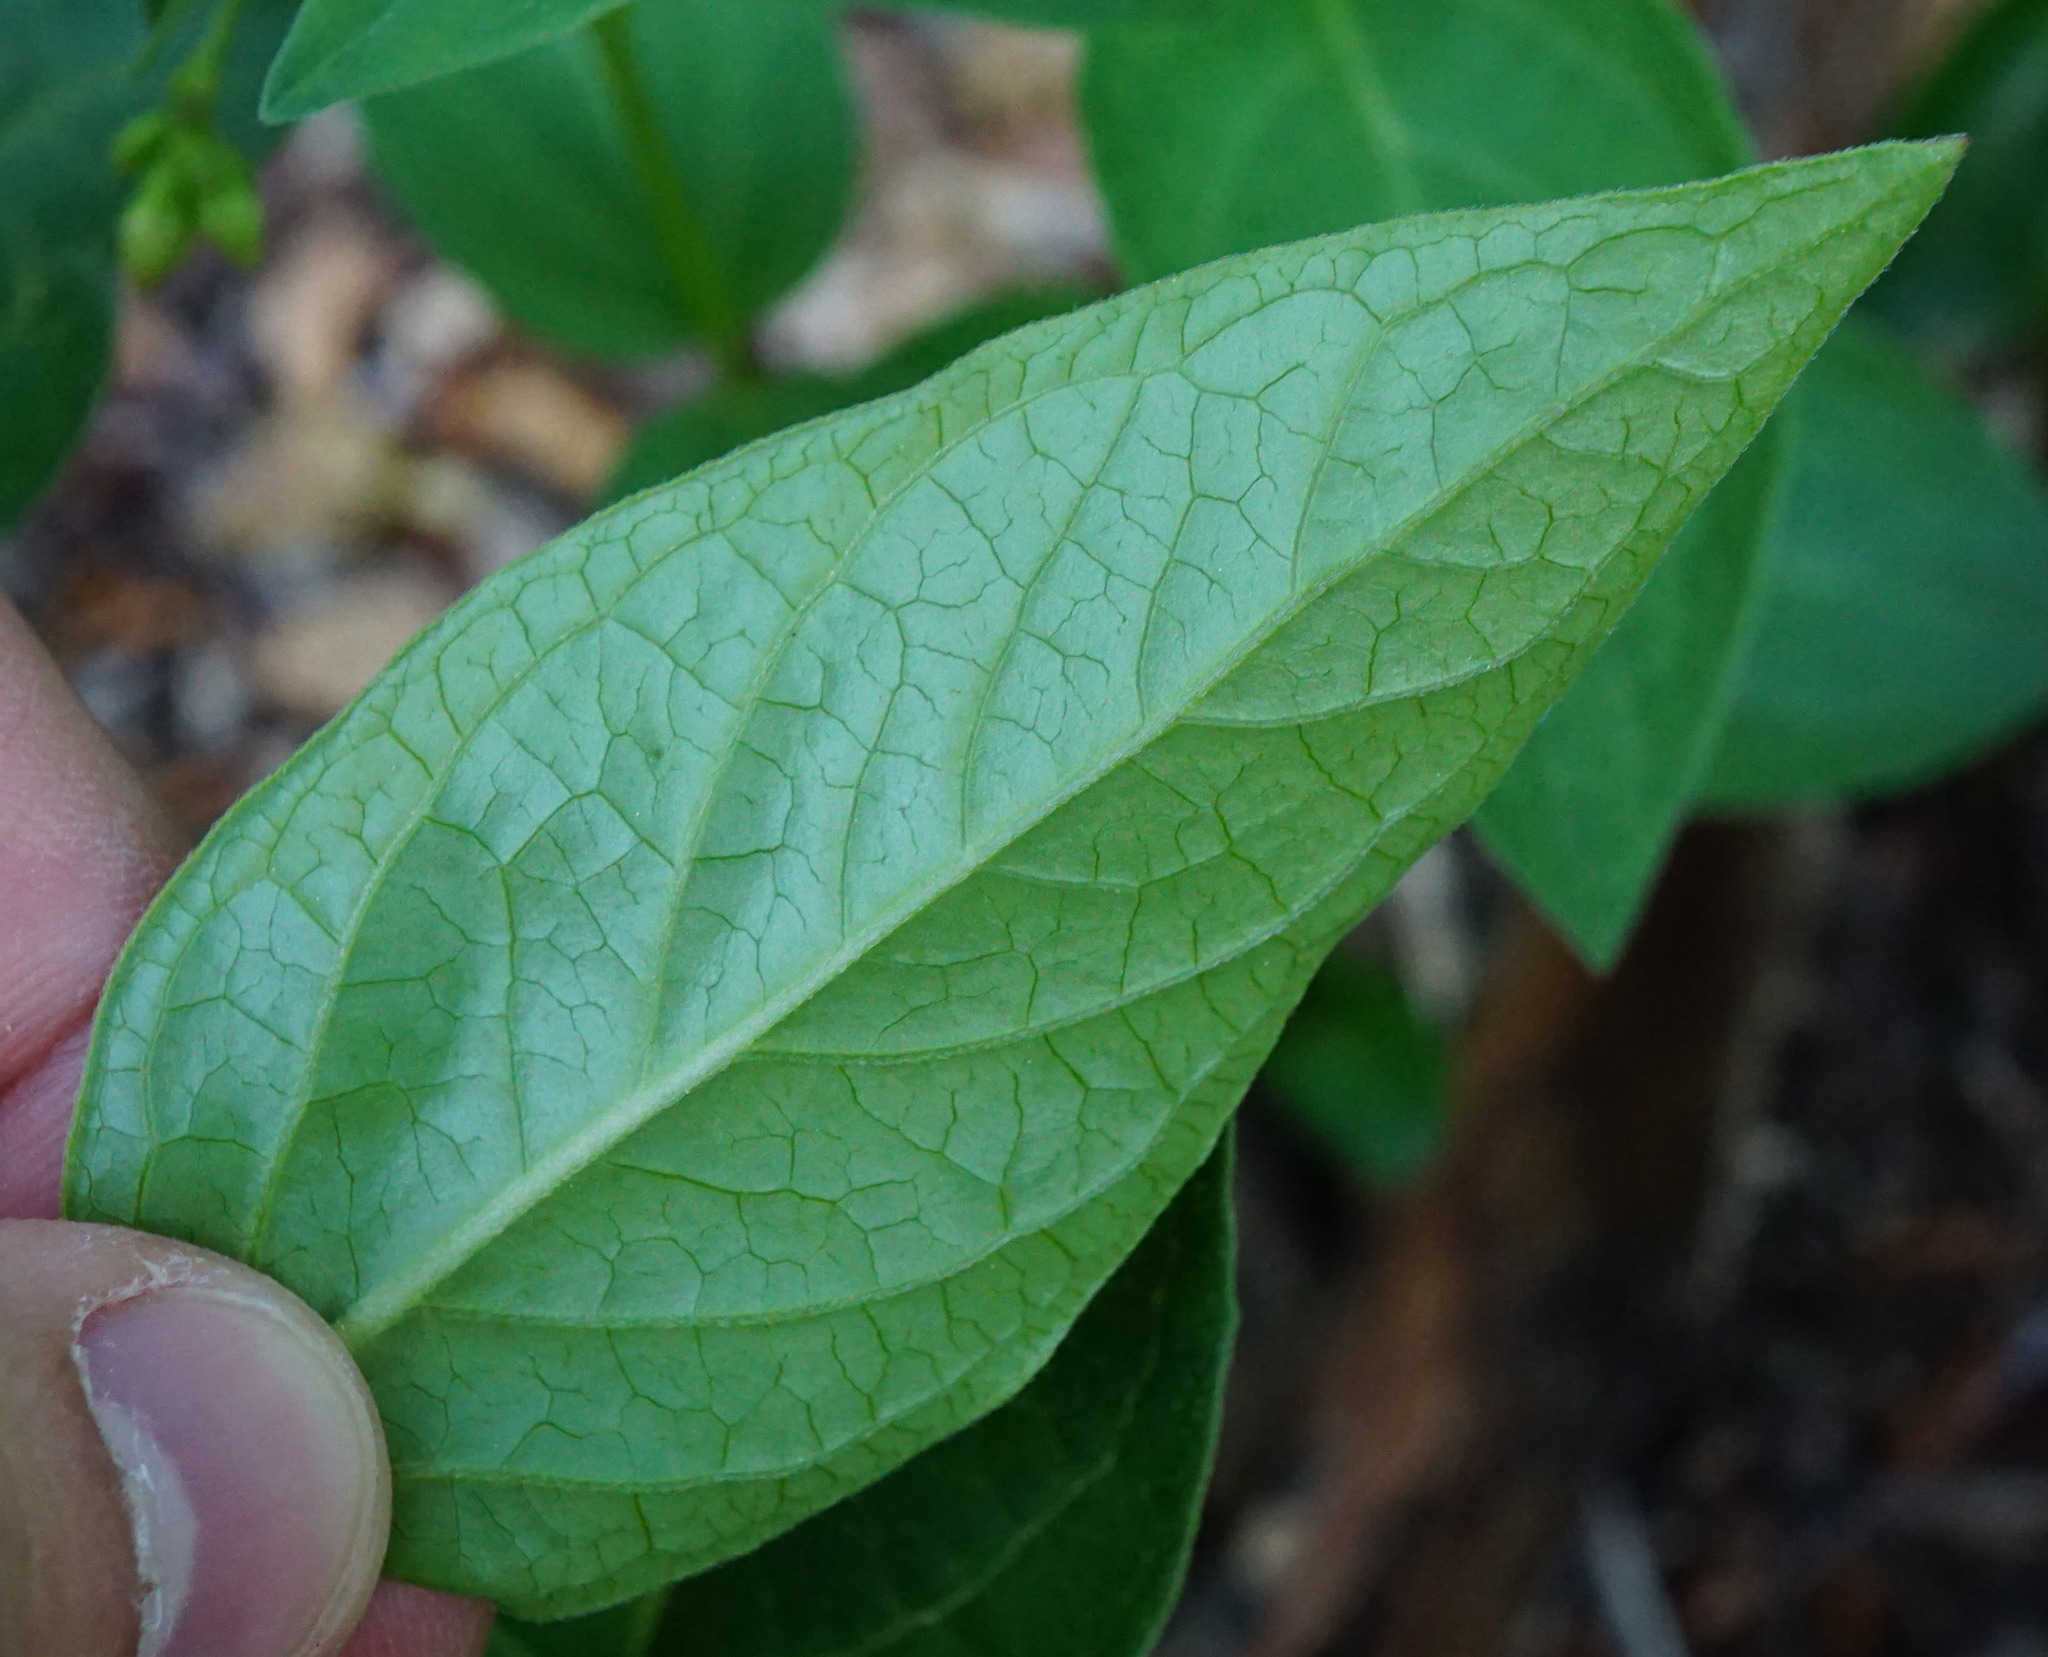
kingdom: Plantae
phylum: Tracheophyta
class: Magnoliopsida
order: Gentianales
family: Apocynaceae
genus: Vincetoxicum
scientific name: Vincetoxicum hirundinaria
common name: White swallowwort
